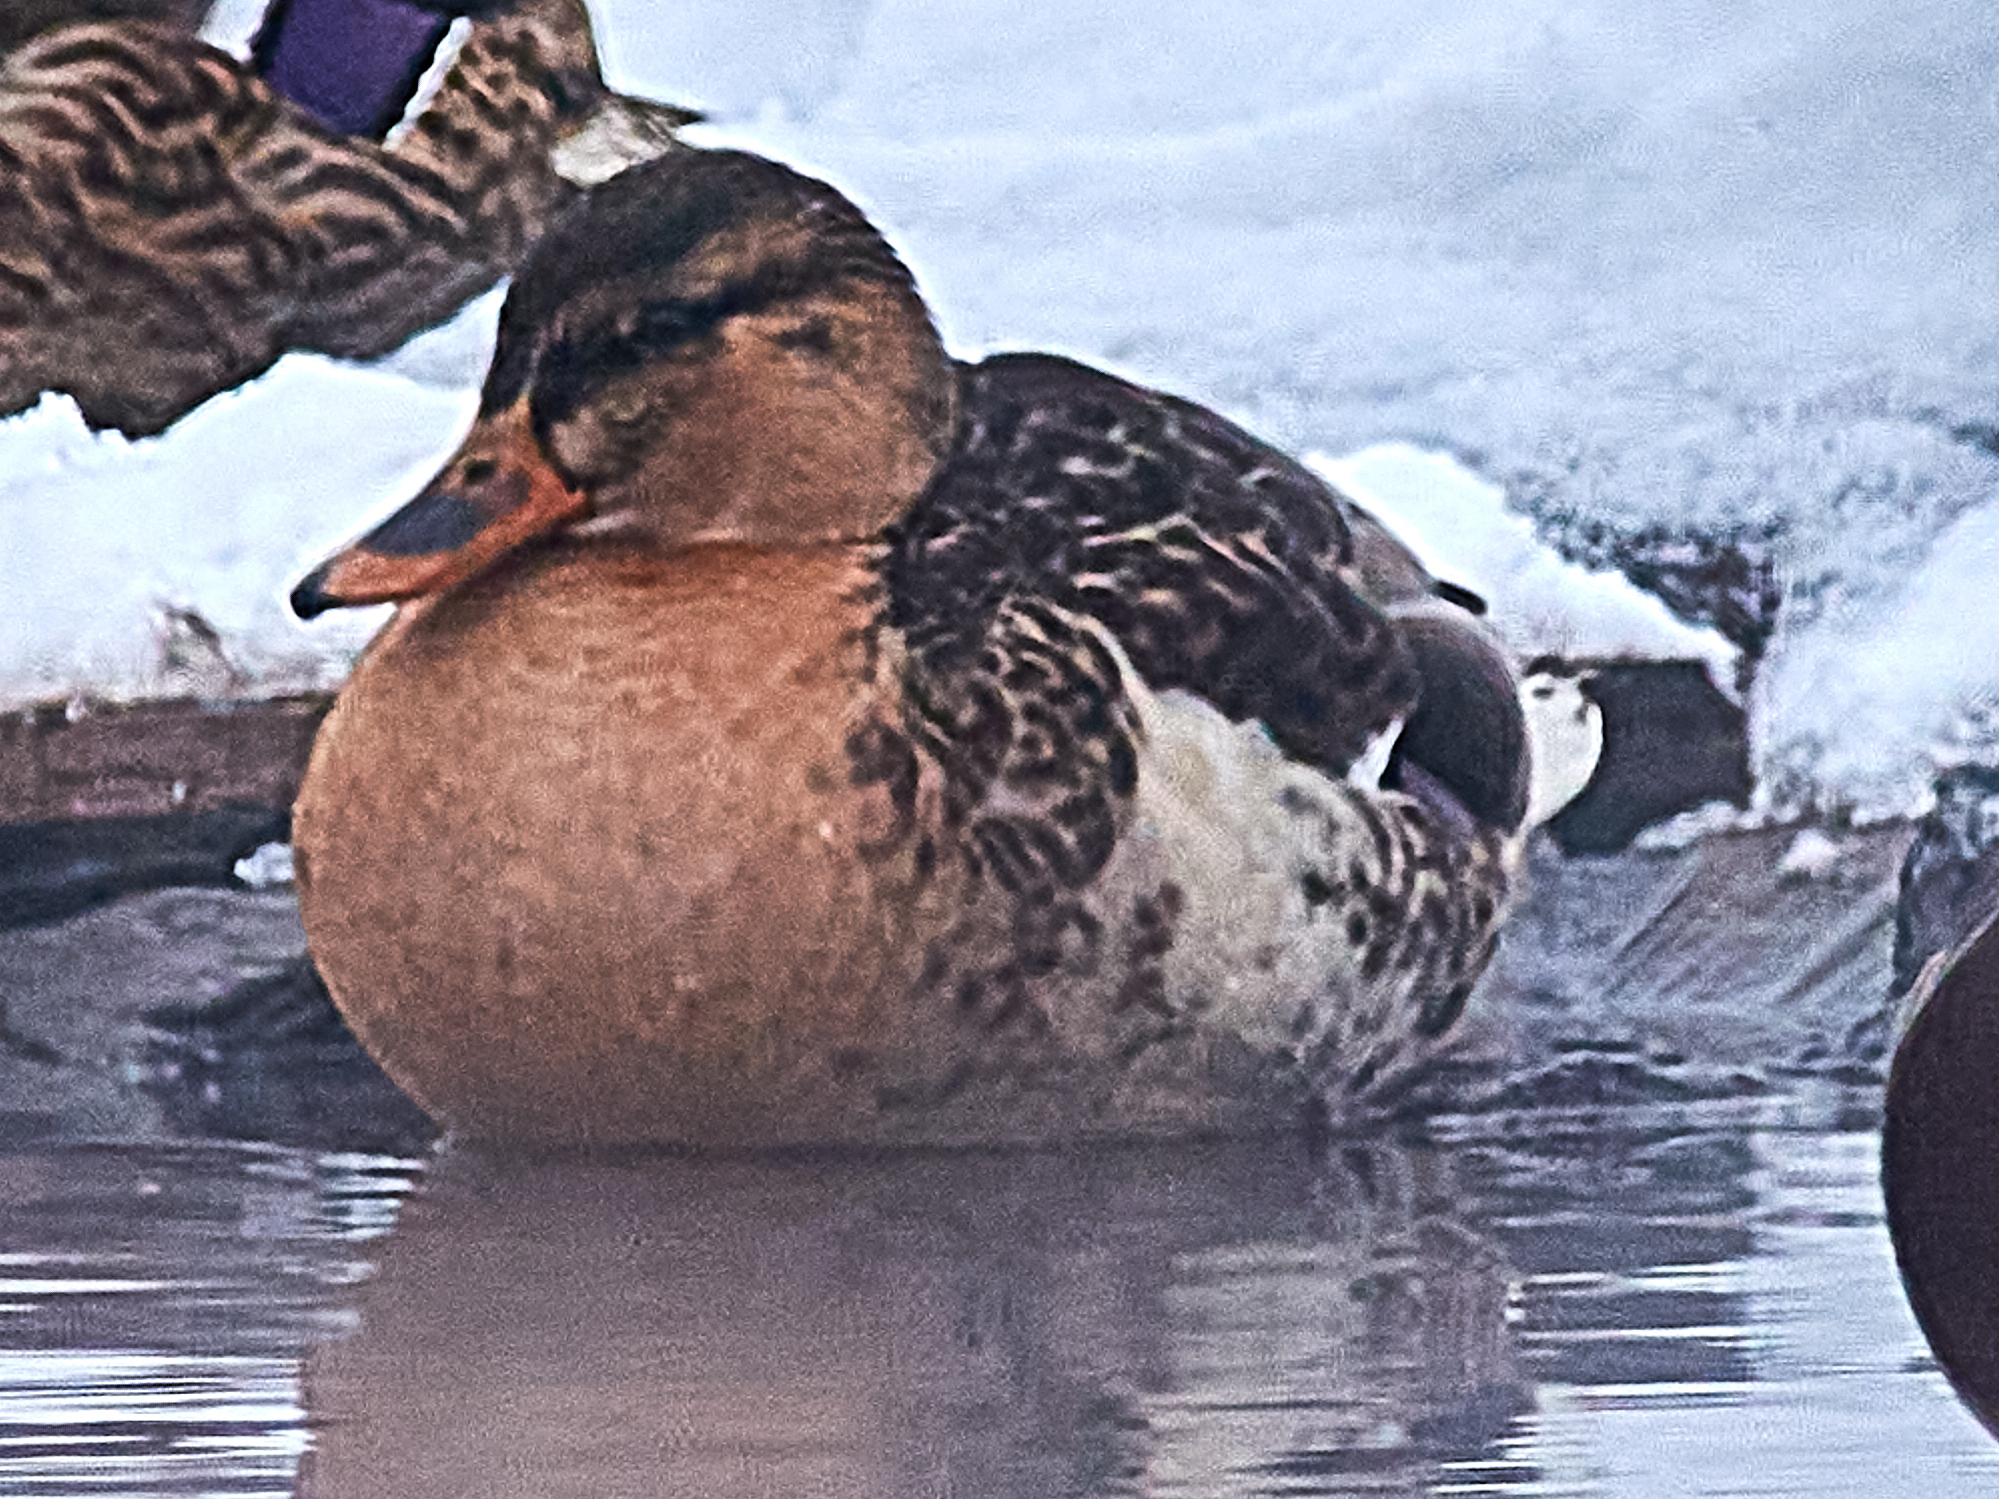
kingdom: Animalia
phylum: Chordata
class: Aves
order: Anseriformes
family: Anatidae
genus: Anas
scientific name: Anas platyrhynchos
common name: Mallard
